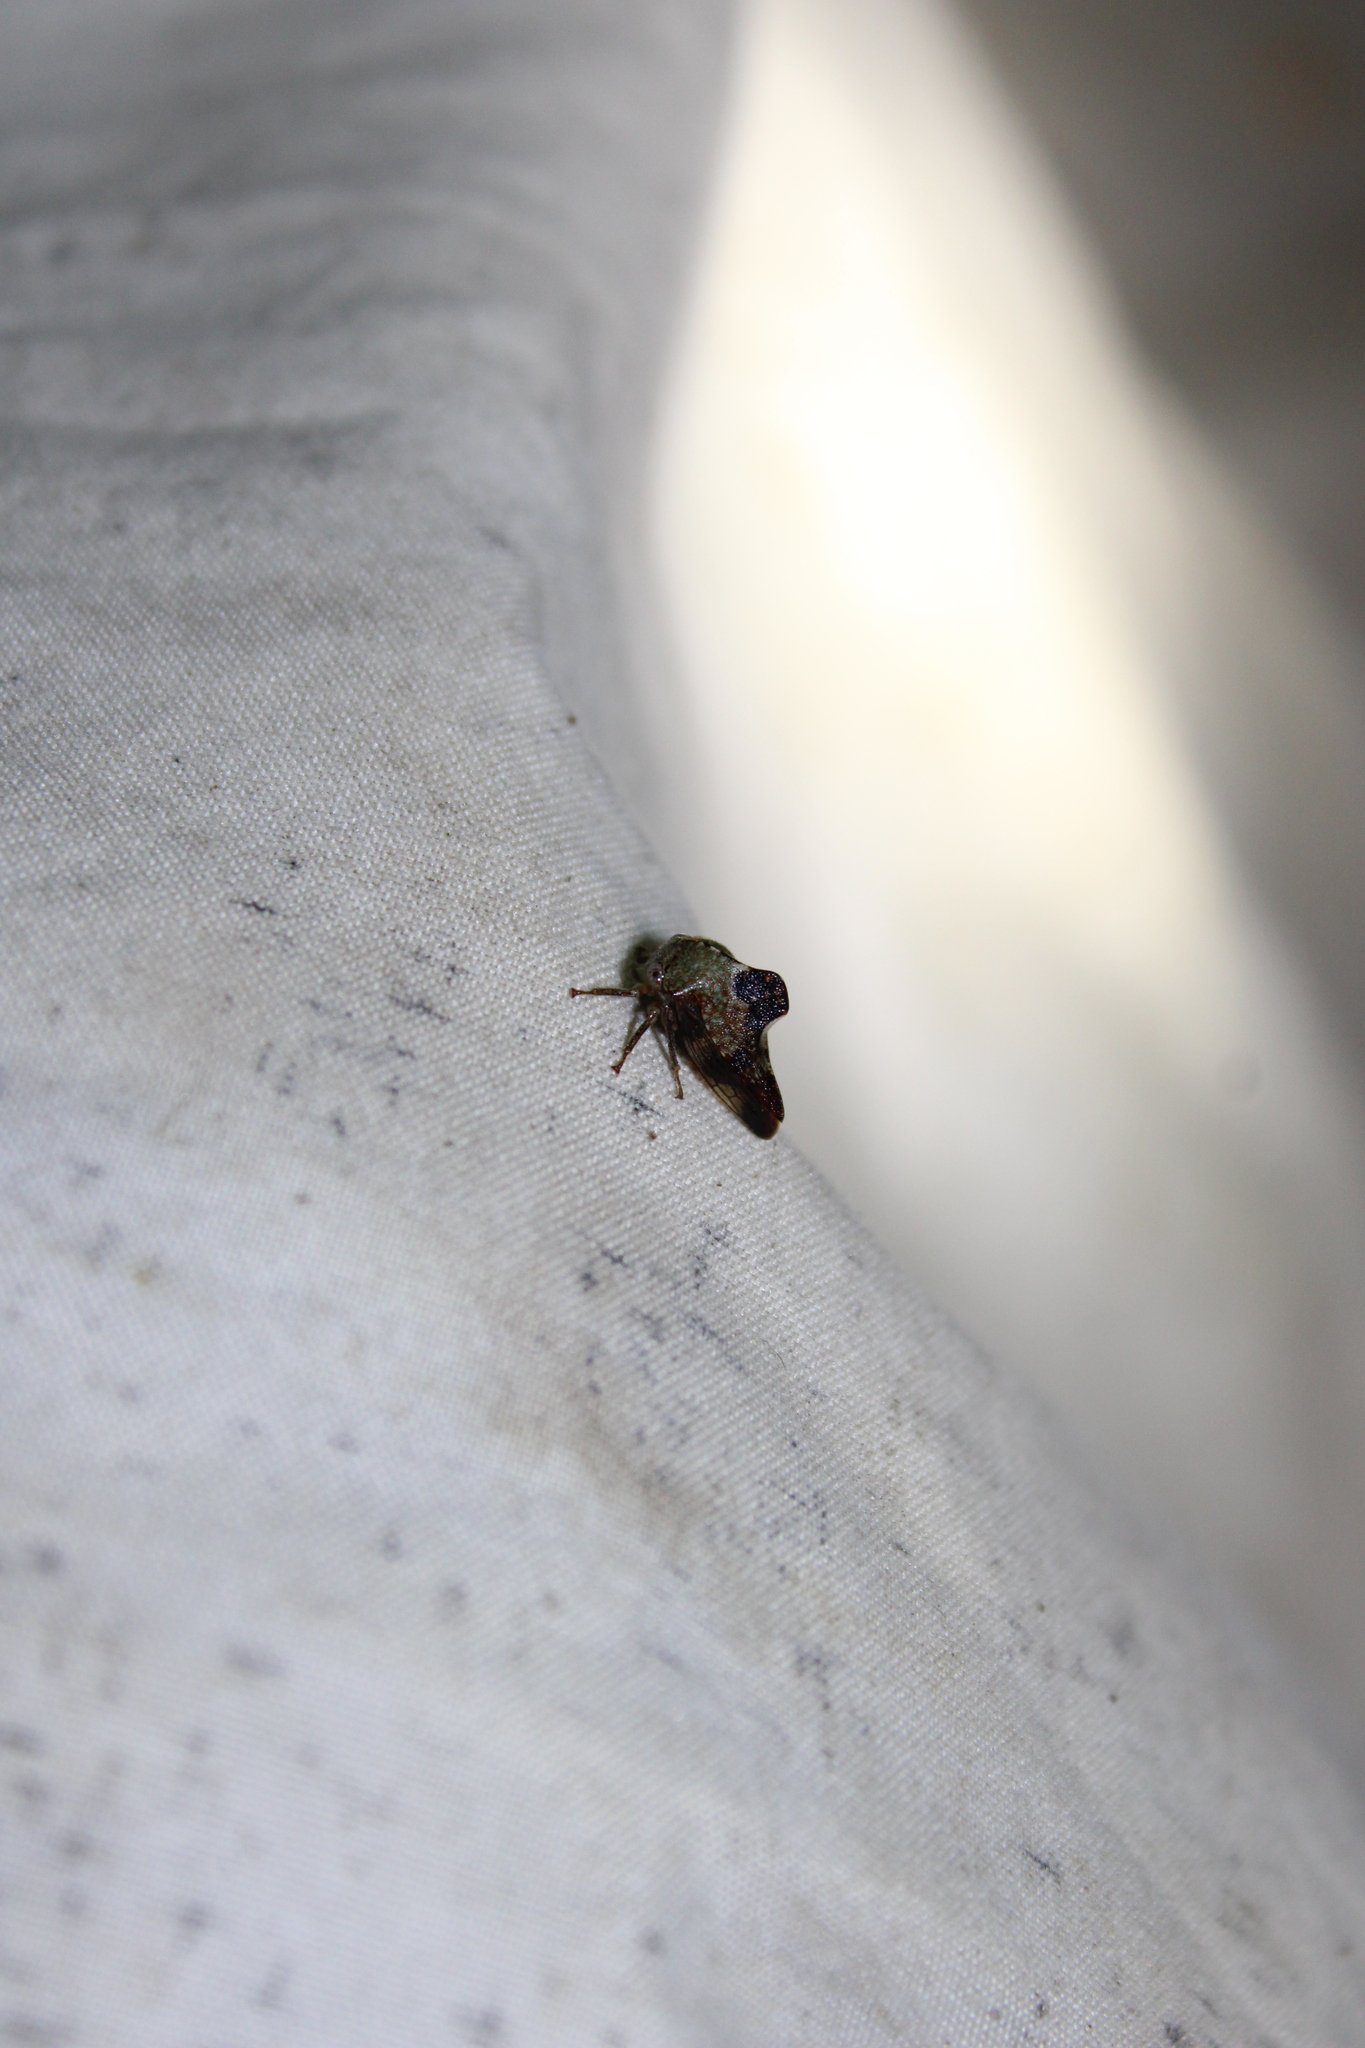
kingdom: Animalia
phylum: Arthropoda
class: Insecta
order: Hemiptera
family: Membracidae
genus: Telamona
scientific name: Telamona decorata
